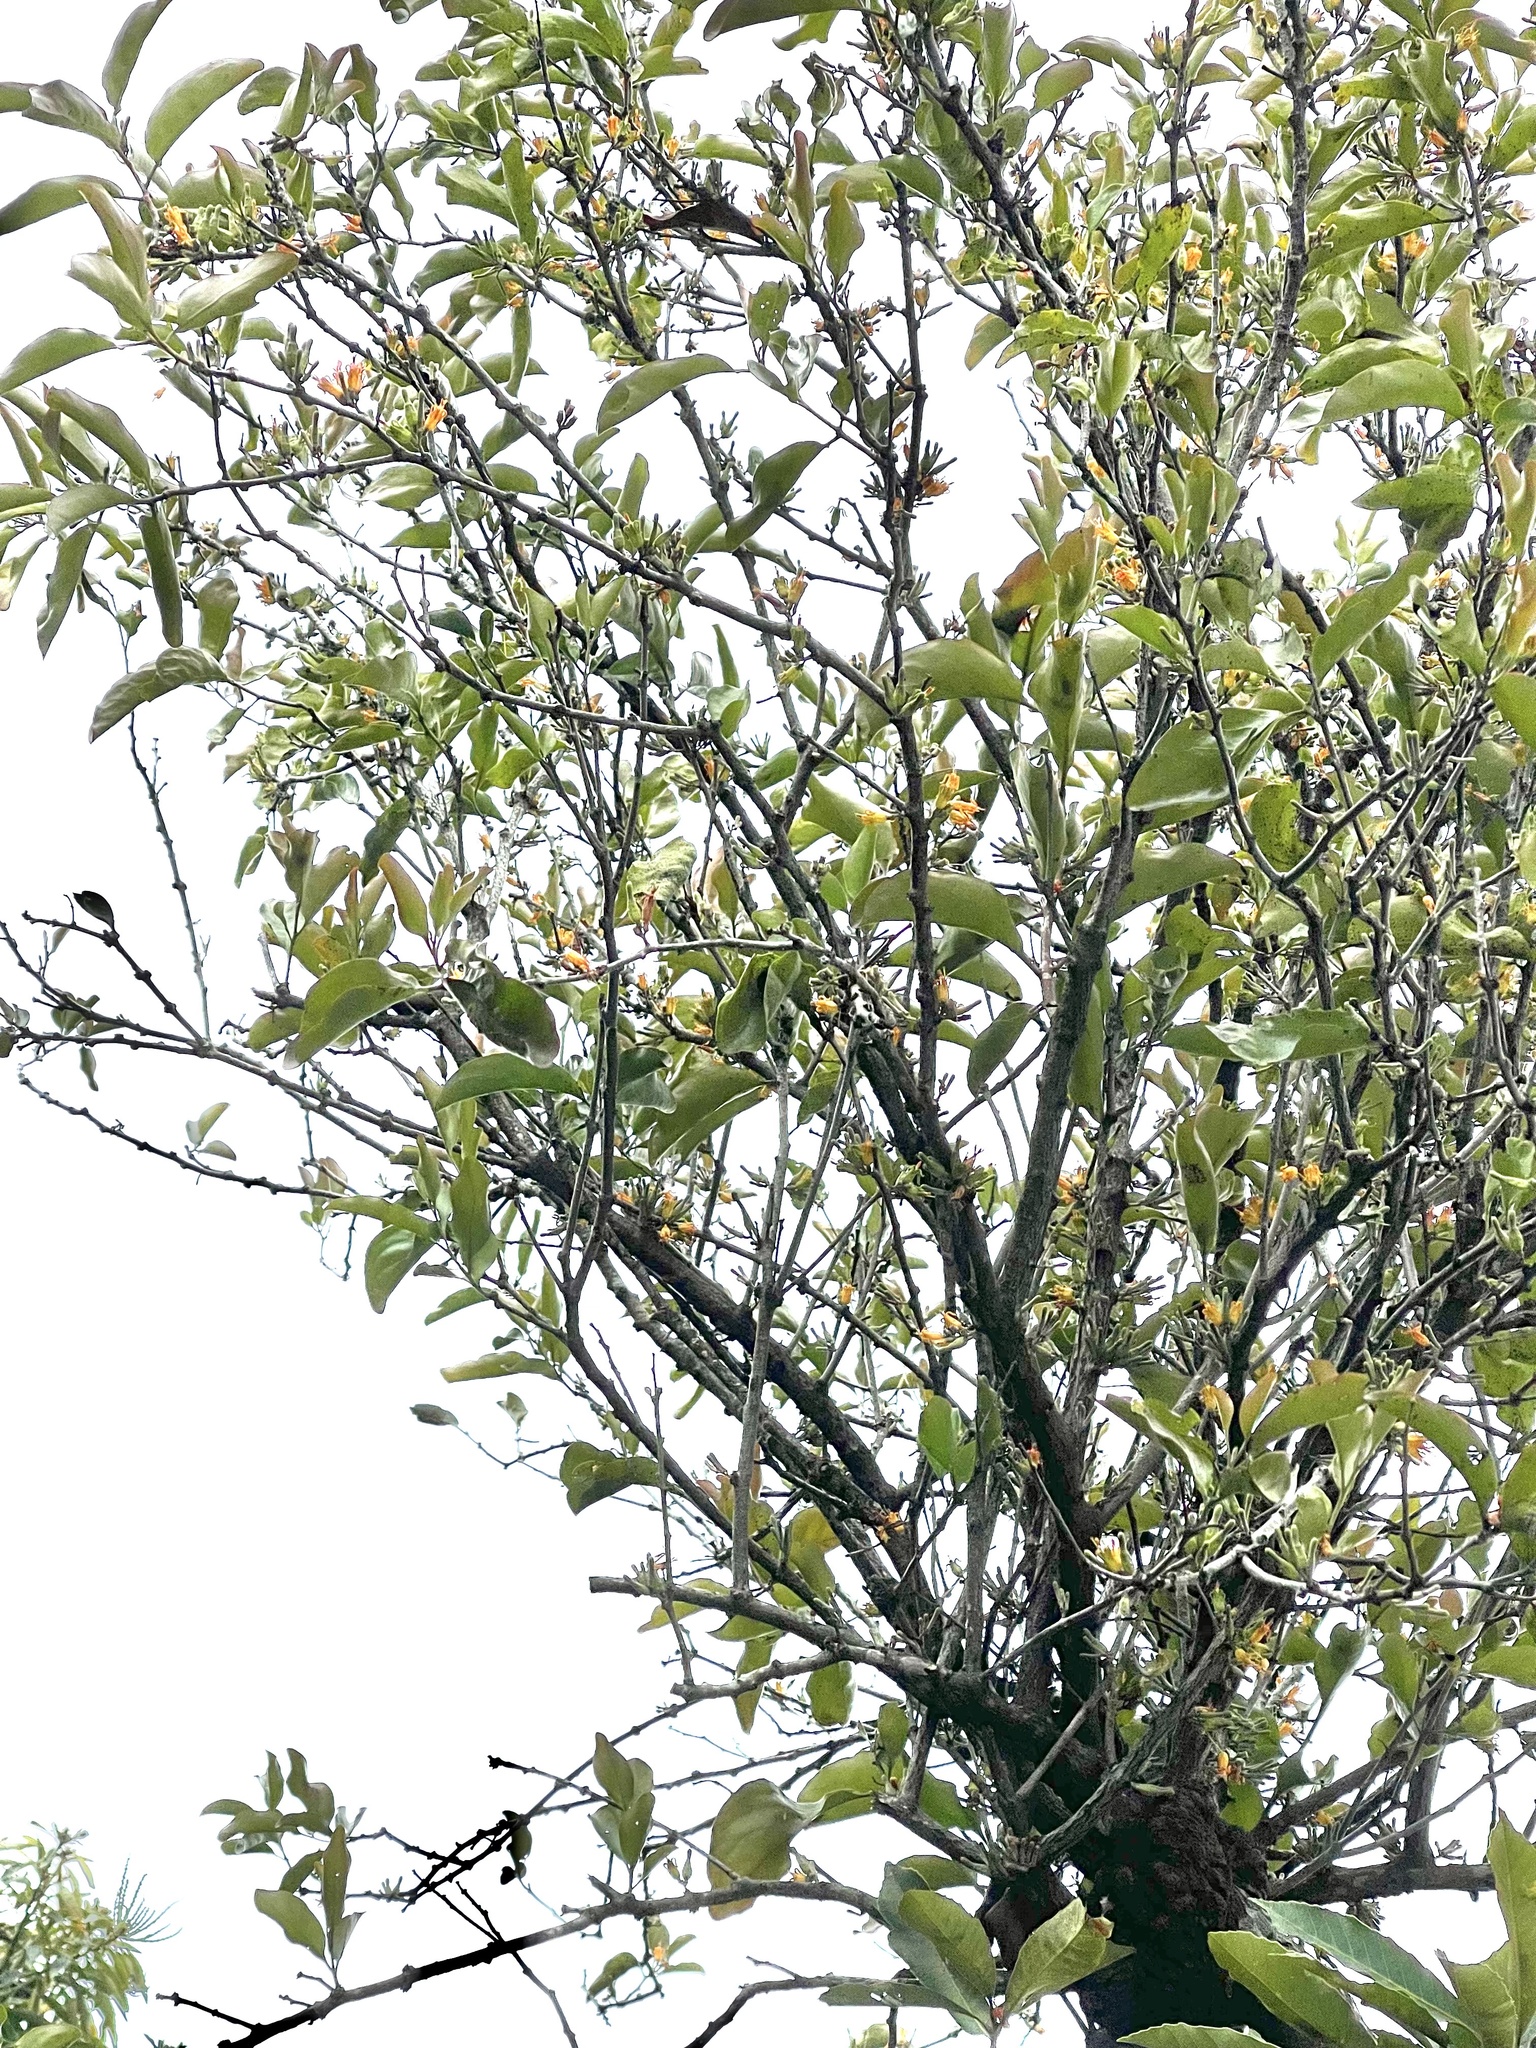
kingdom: Plantae
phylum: Tracheophyta
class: Magnoliopsida
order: Santalales
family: Loranthaceae
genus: Dendrophthoe
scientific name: Dendrophthoe pentandra
